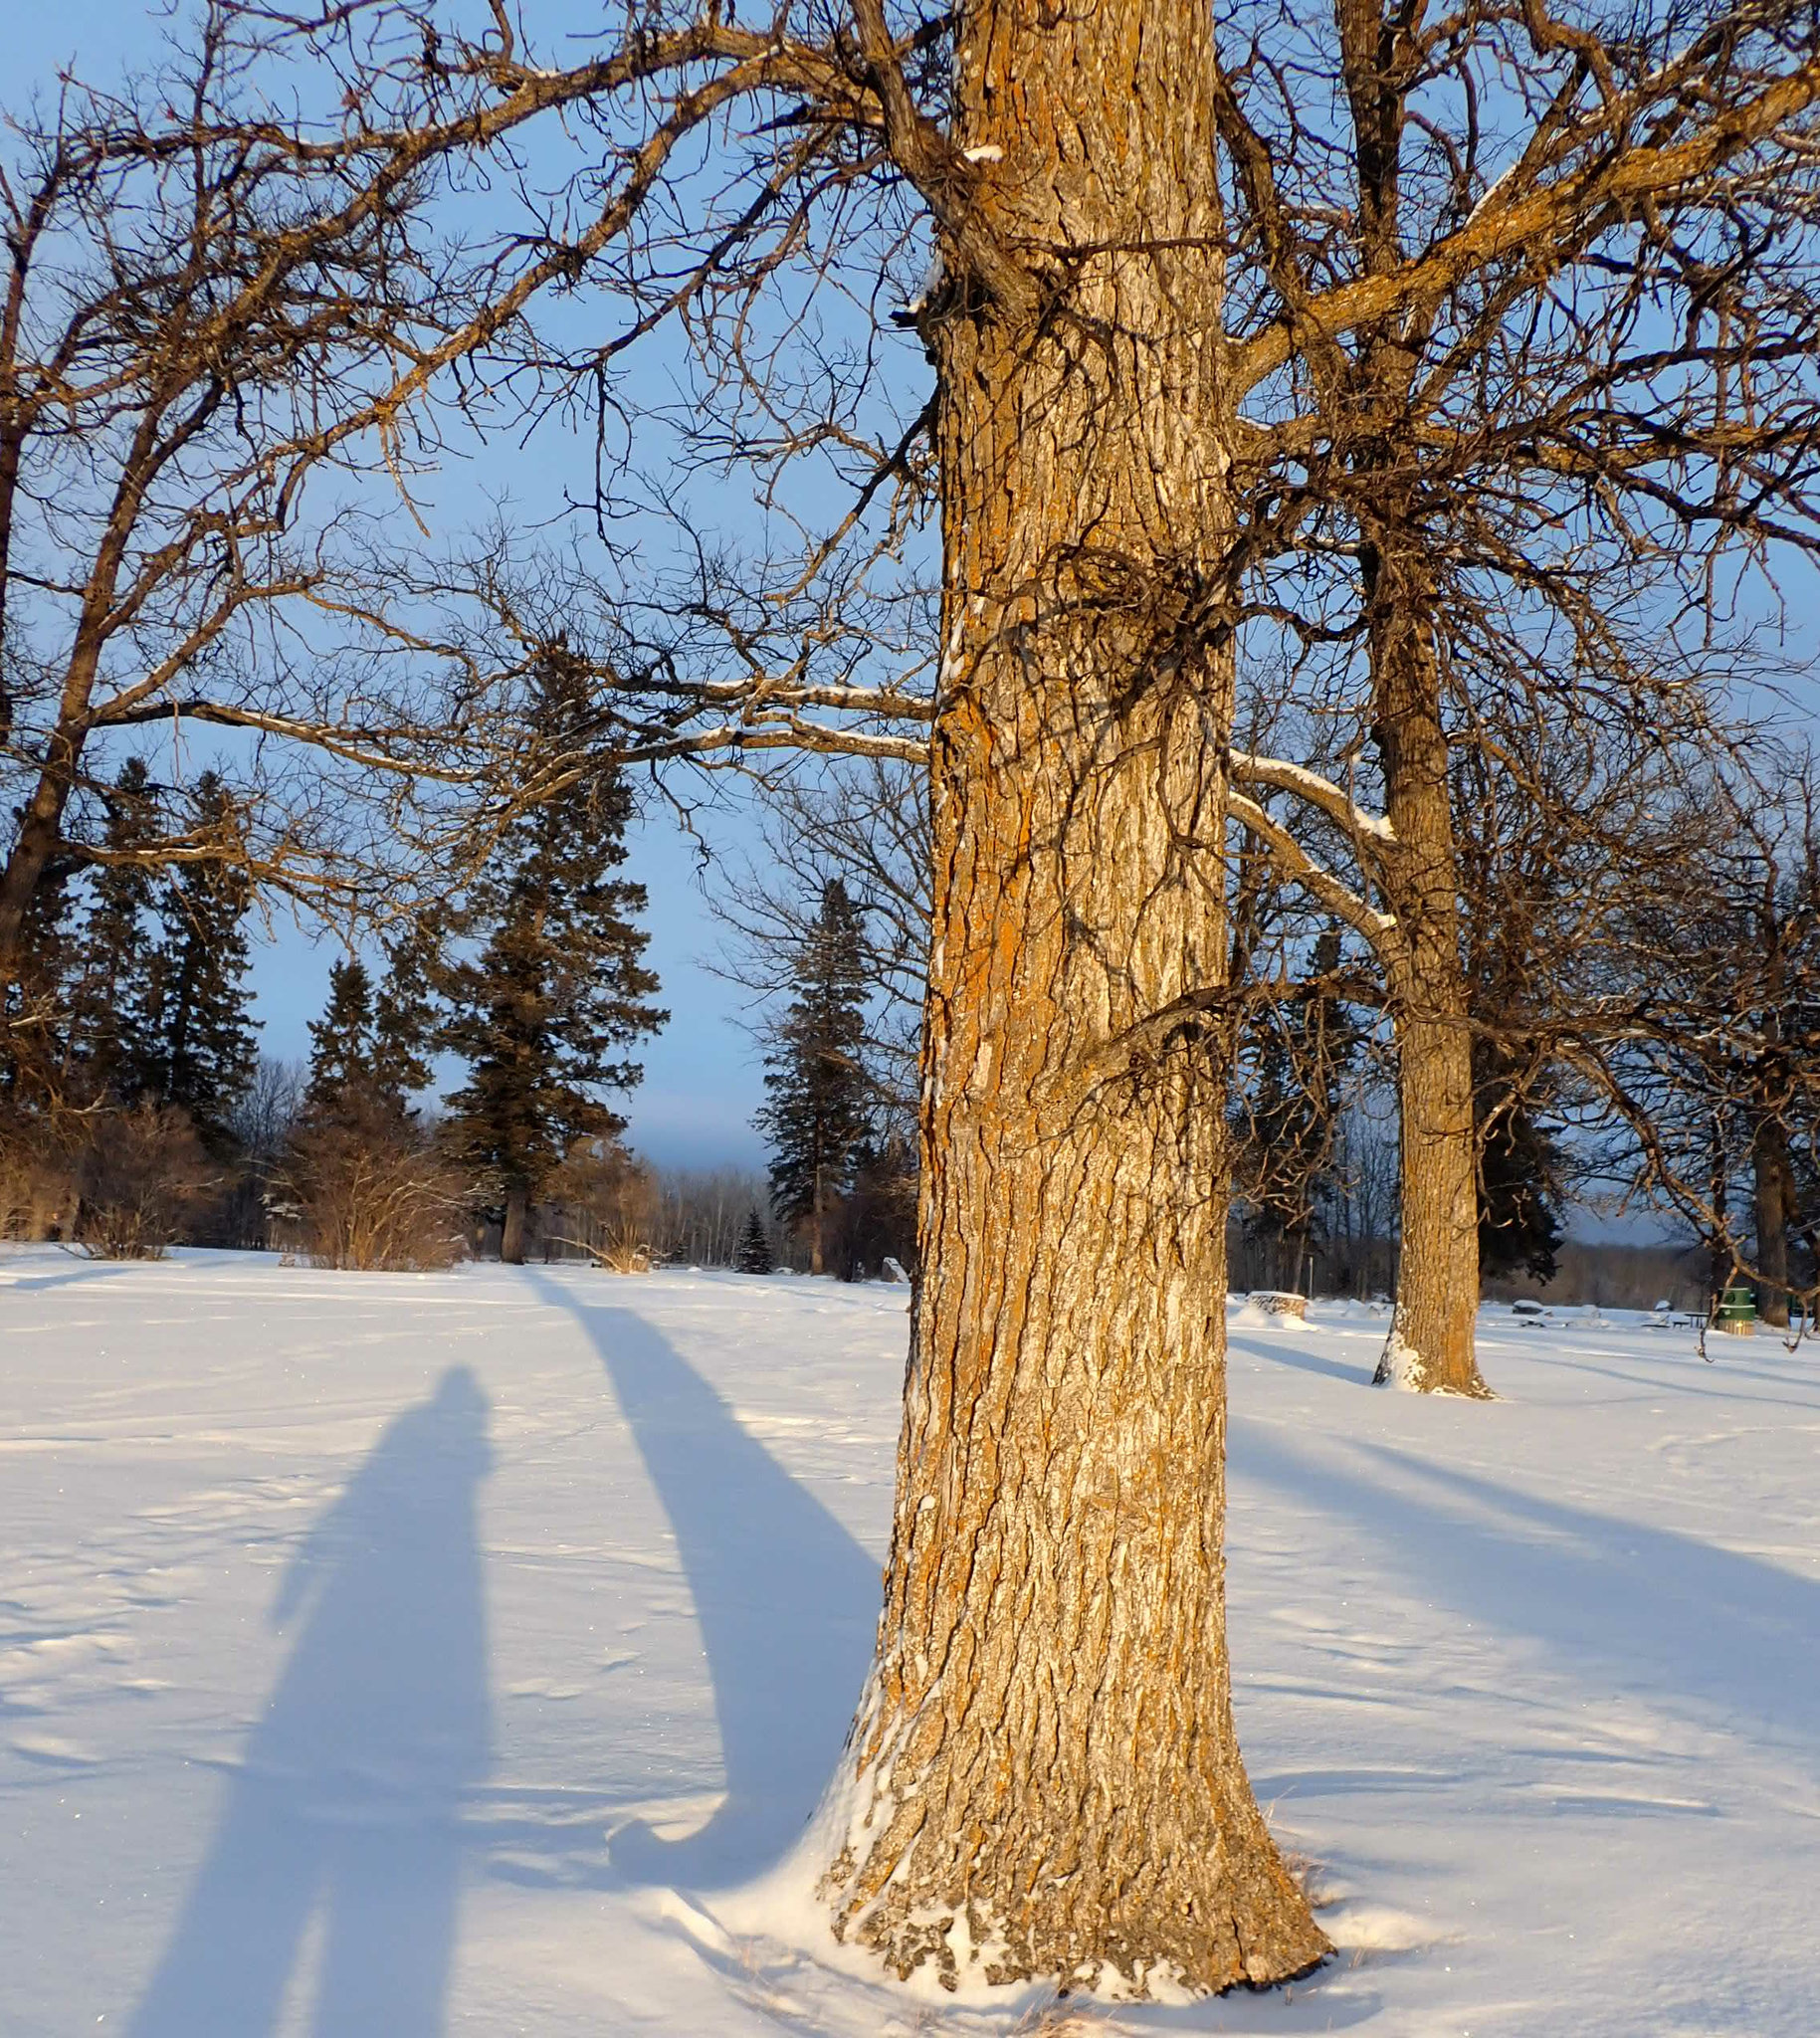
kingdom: Plantae
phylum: Tracheophyta
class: Magnoliopsida
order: Fagales
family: Fagaceae
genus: Quercus
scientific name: Quercus macrocarpa
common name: Bur oak
